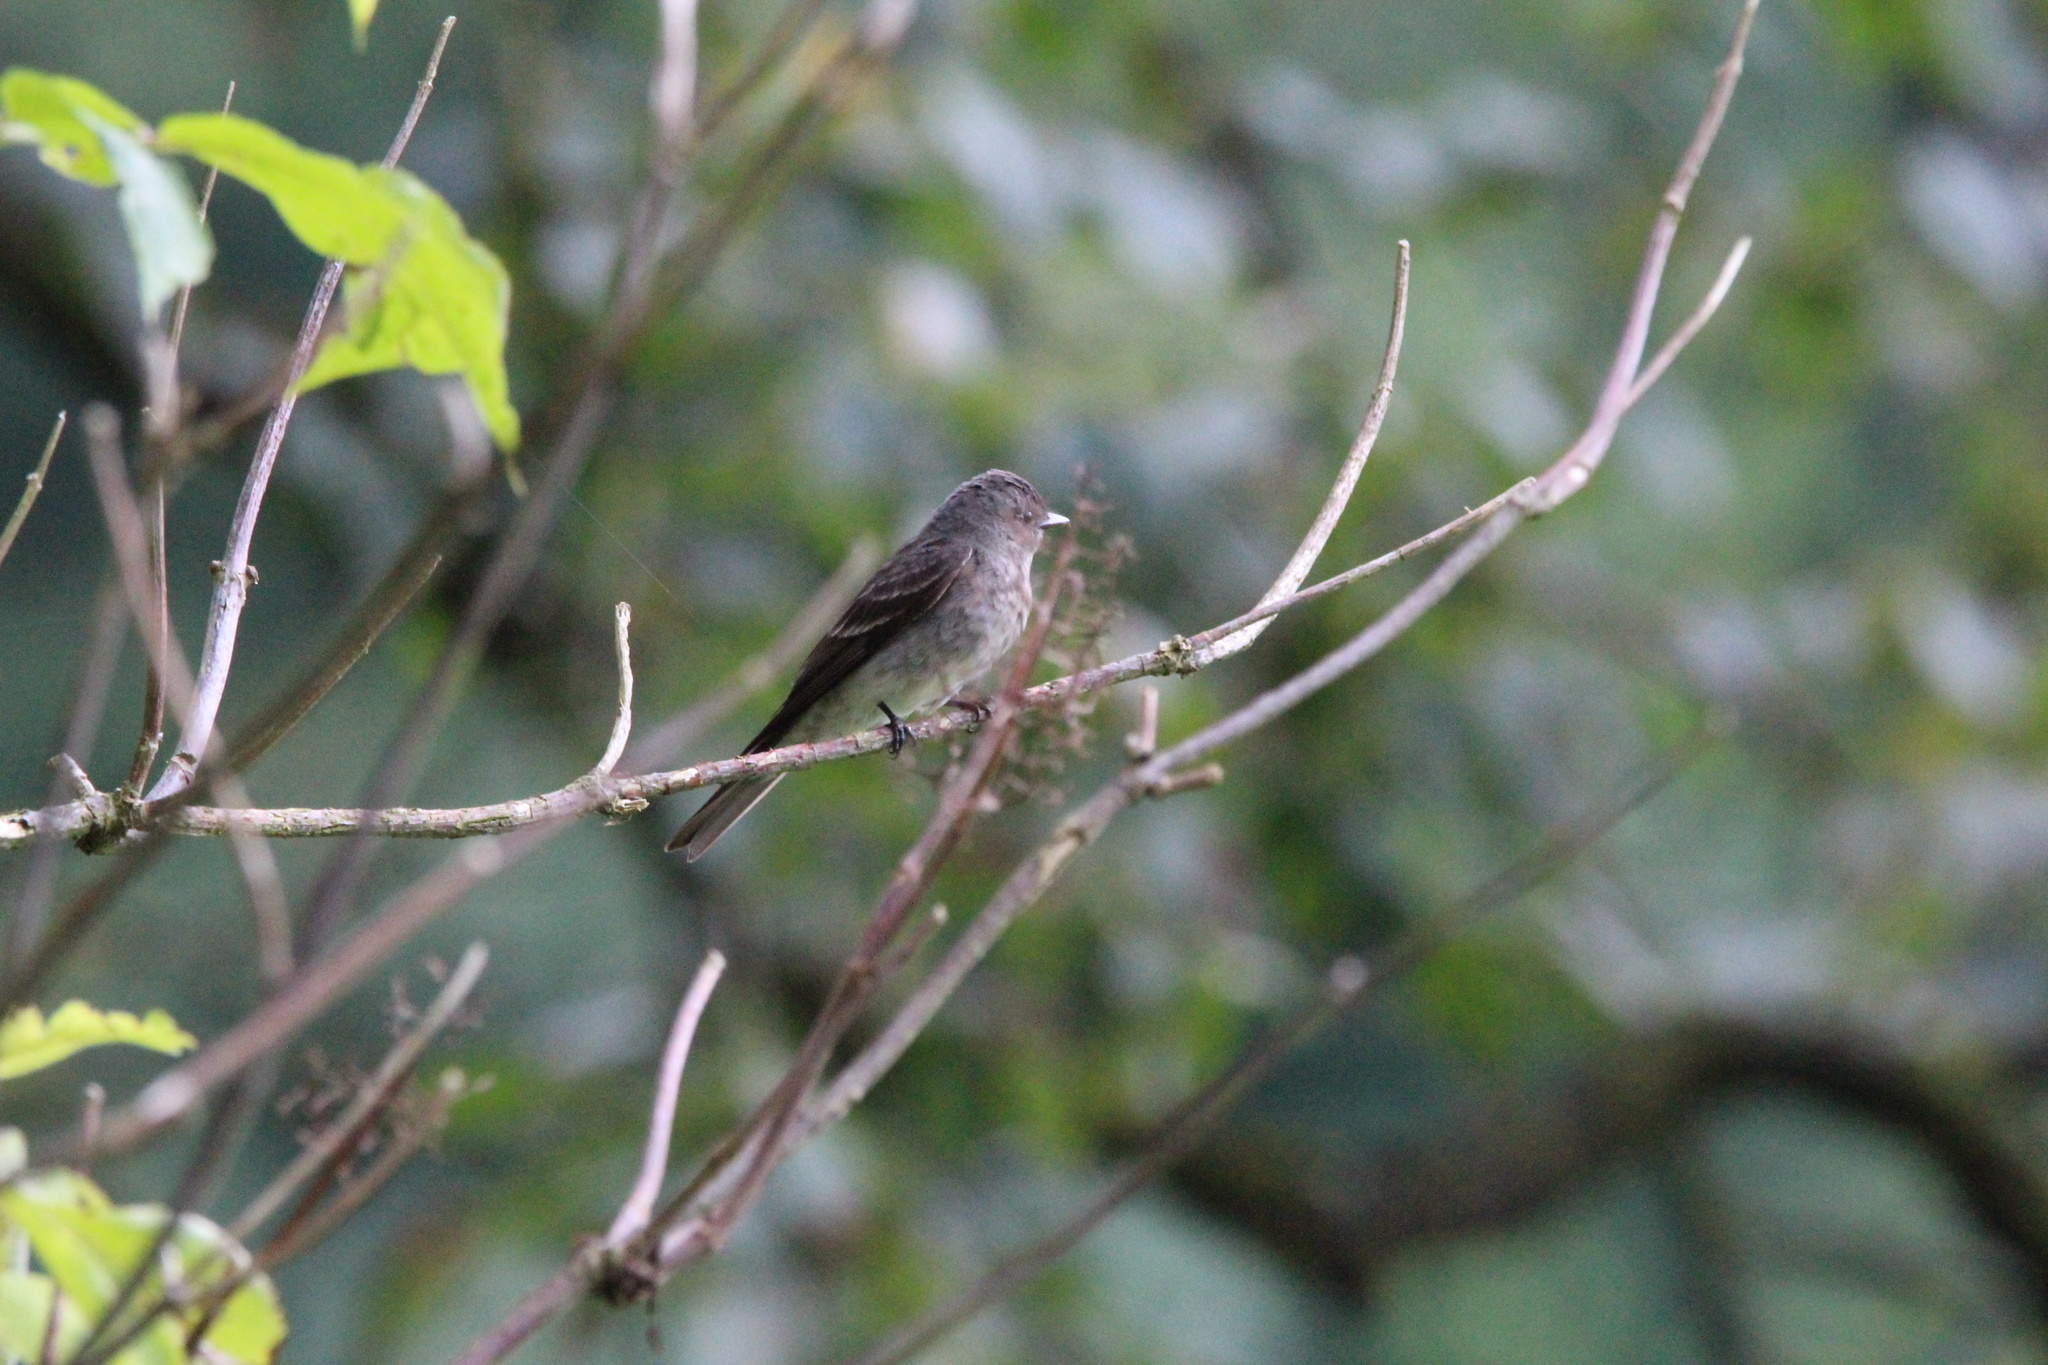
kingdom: Animalia
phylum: Chordata
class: Aves
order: Passeriformes
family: Tyrannidae
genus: Contopus
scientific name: Contopus sordidulus
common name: Western wood-pewee
